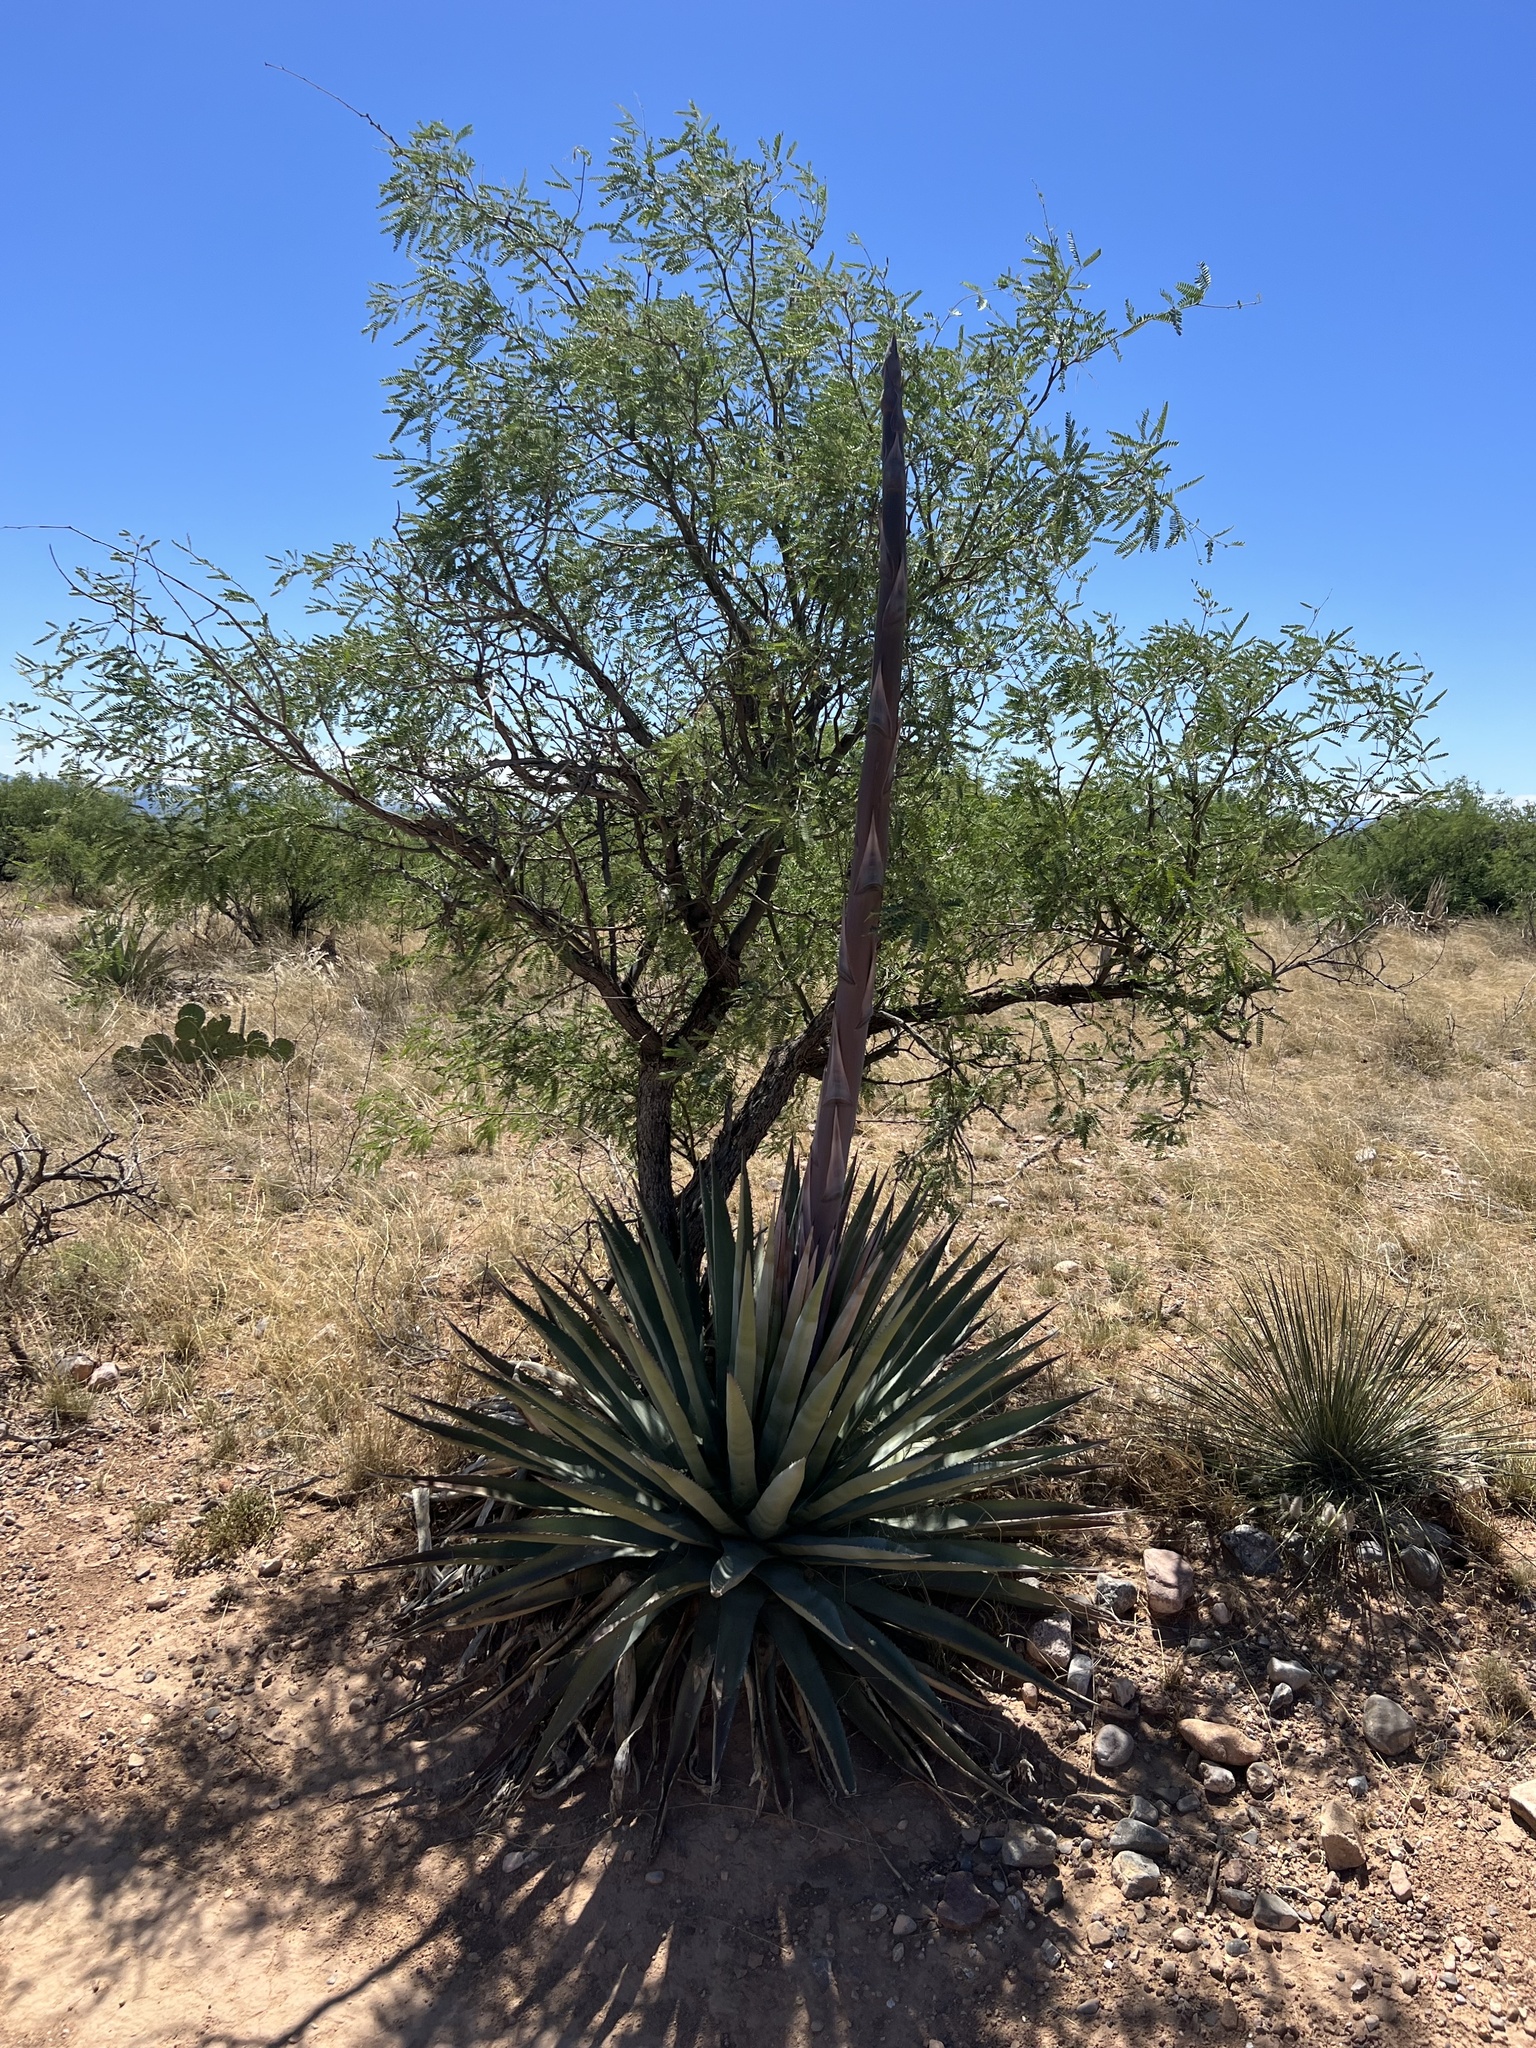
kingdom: Plantae
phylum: Tracheophyta
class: Liliopsida
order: Asparagales
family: Asparagaceae
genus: Agave
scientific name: Agave palmeri
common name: Palmer agave
